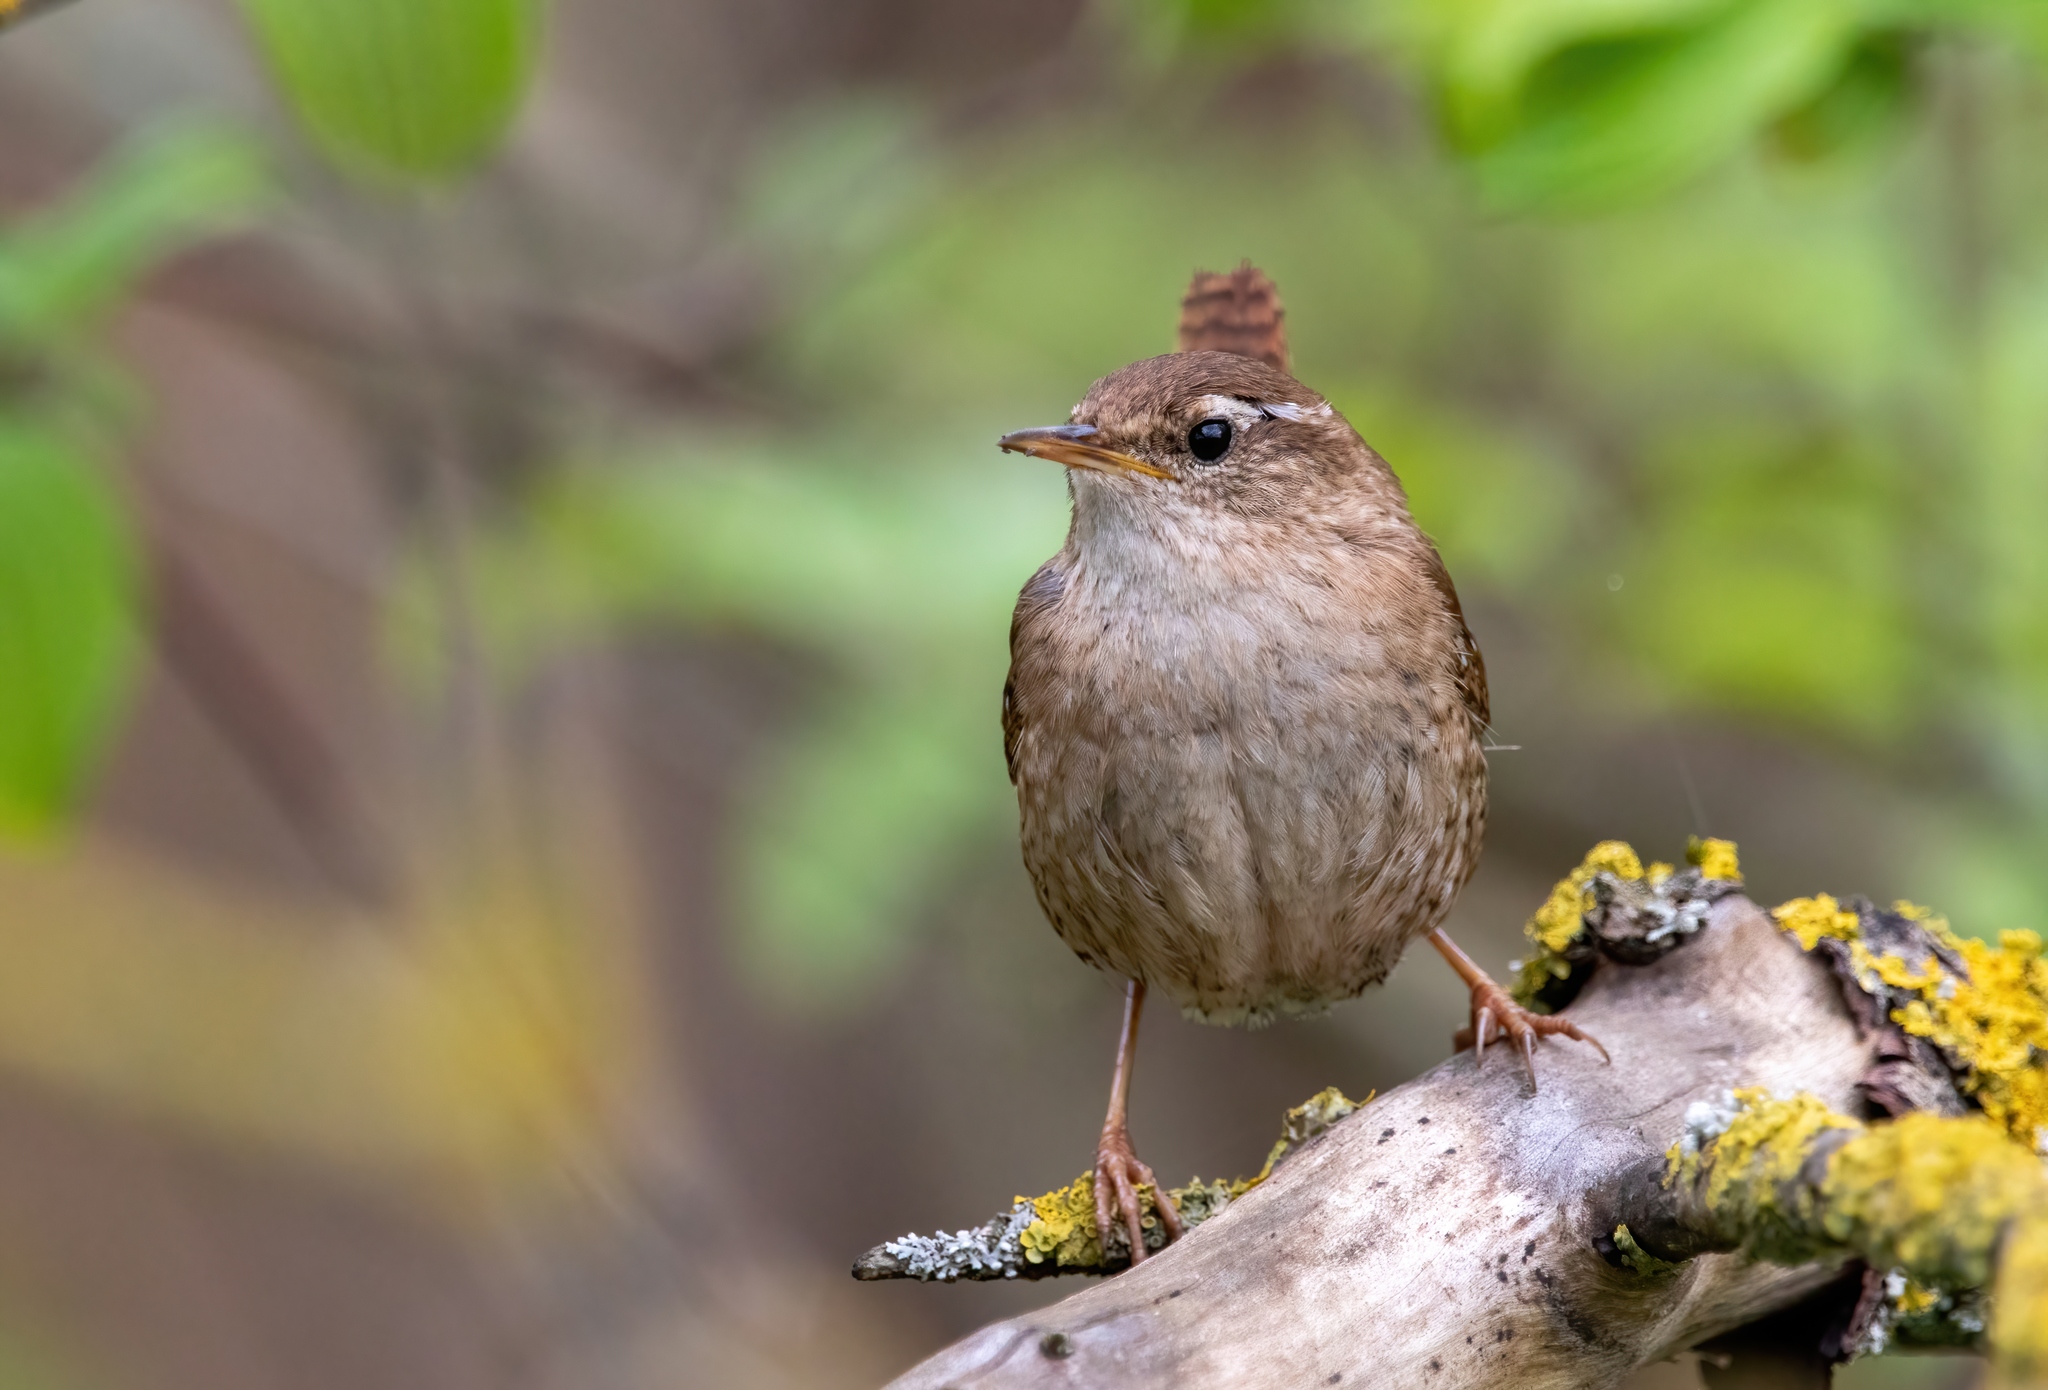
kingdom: Animalia
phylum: Chordata
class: Aves
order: Passeriformes
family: Troglodytidae
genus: Troglodytes
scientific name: Troglodytes troglodytes
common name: Eurasian wren
